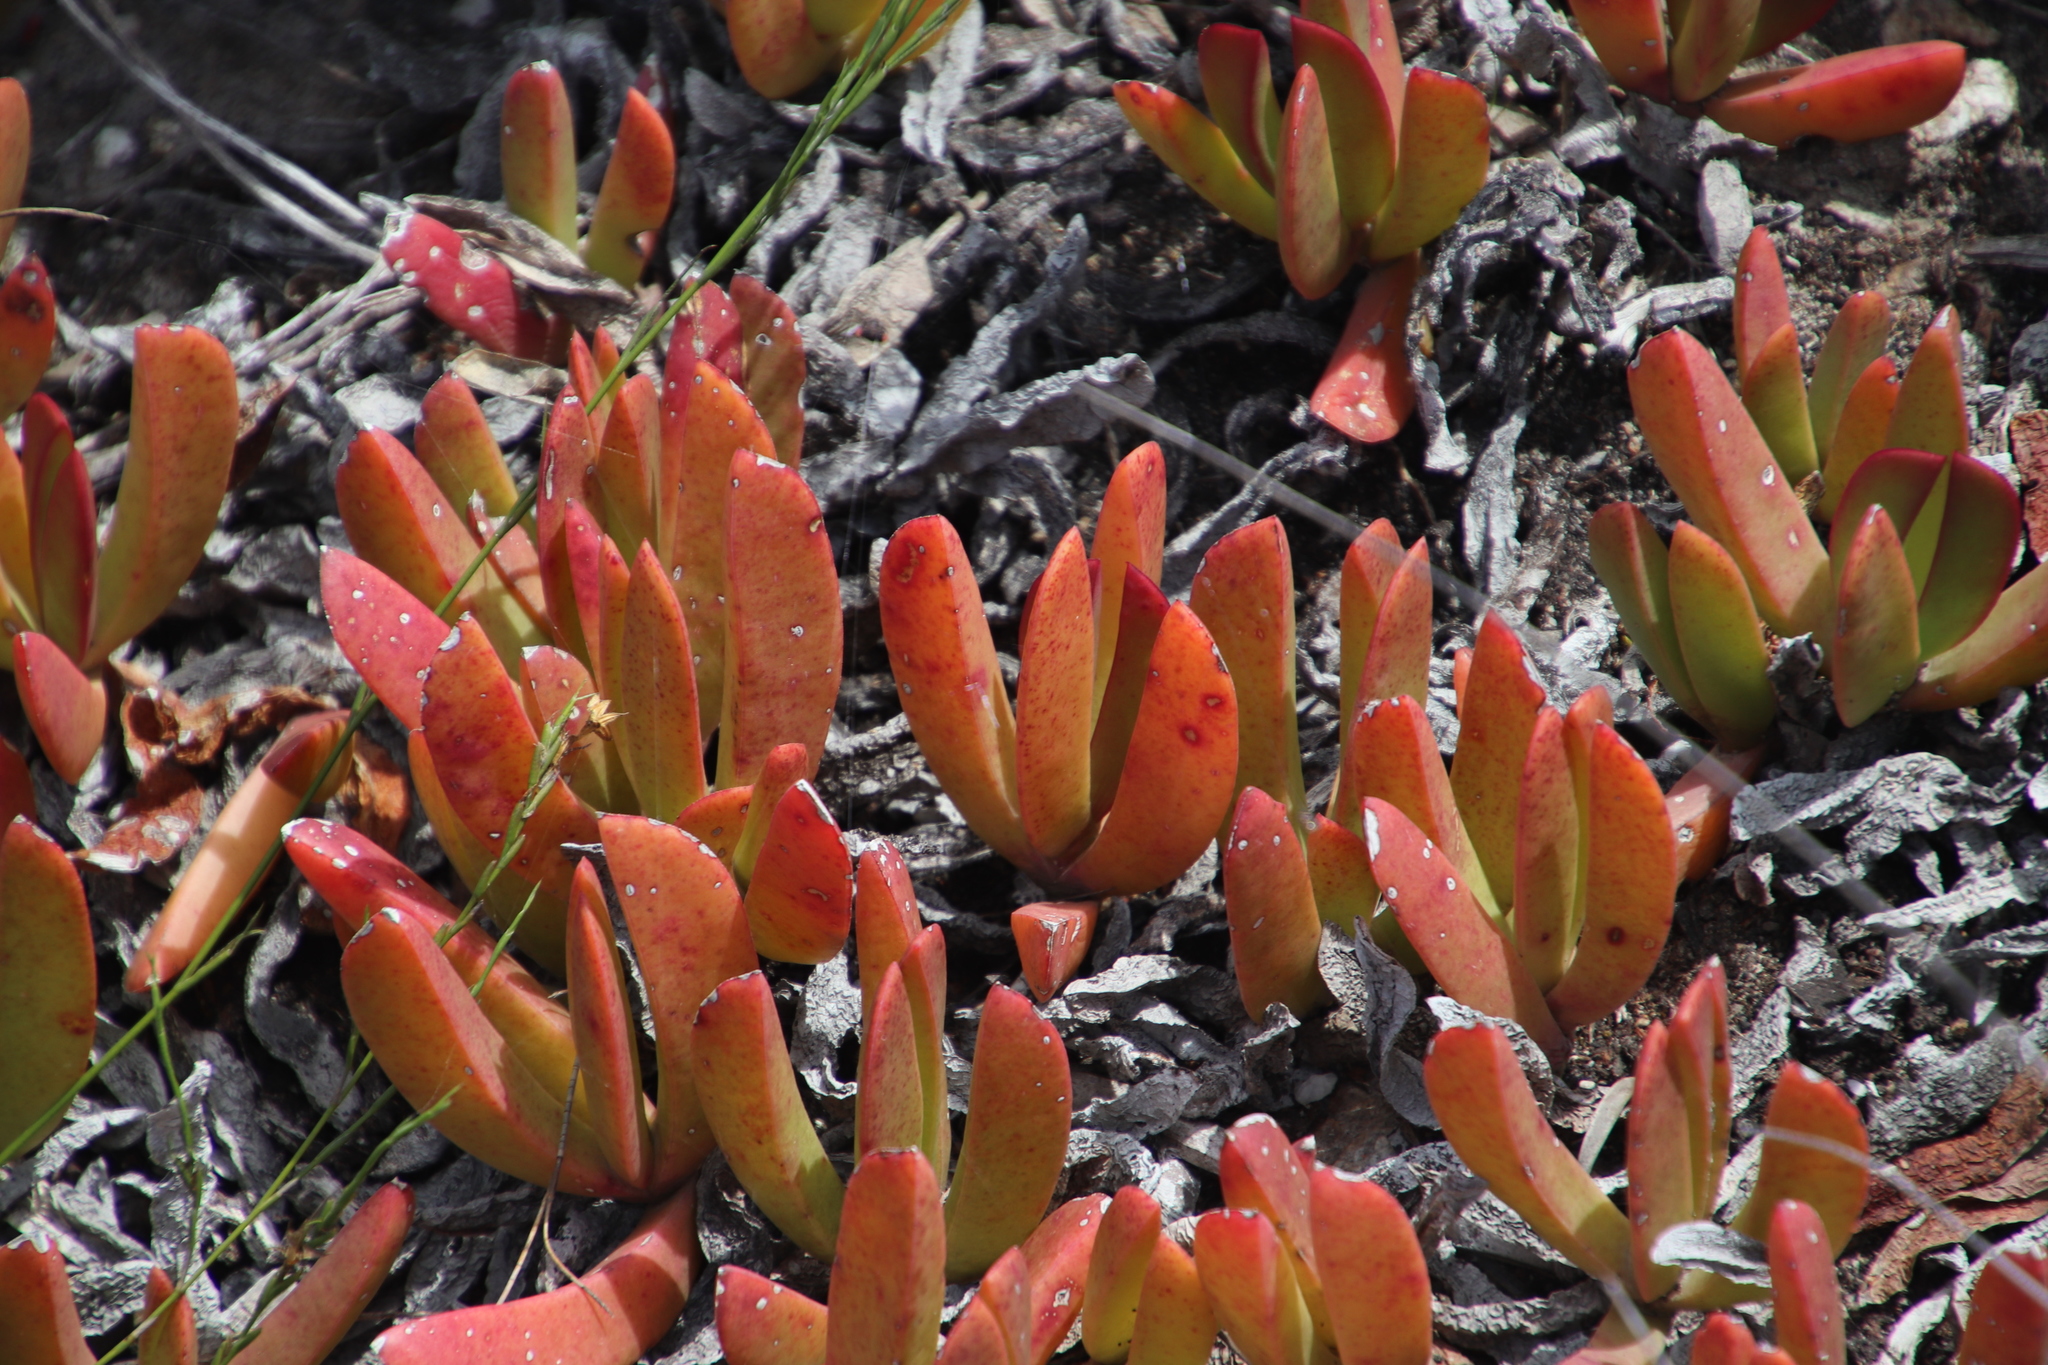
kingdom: Plantae
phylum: Tracheophyta
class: Magnoliopsida
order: Caryophyllales
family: Aizoaceae
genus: Carpobrotus
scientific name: Carpobrotus mellei
